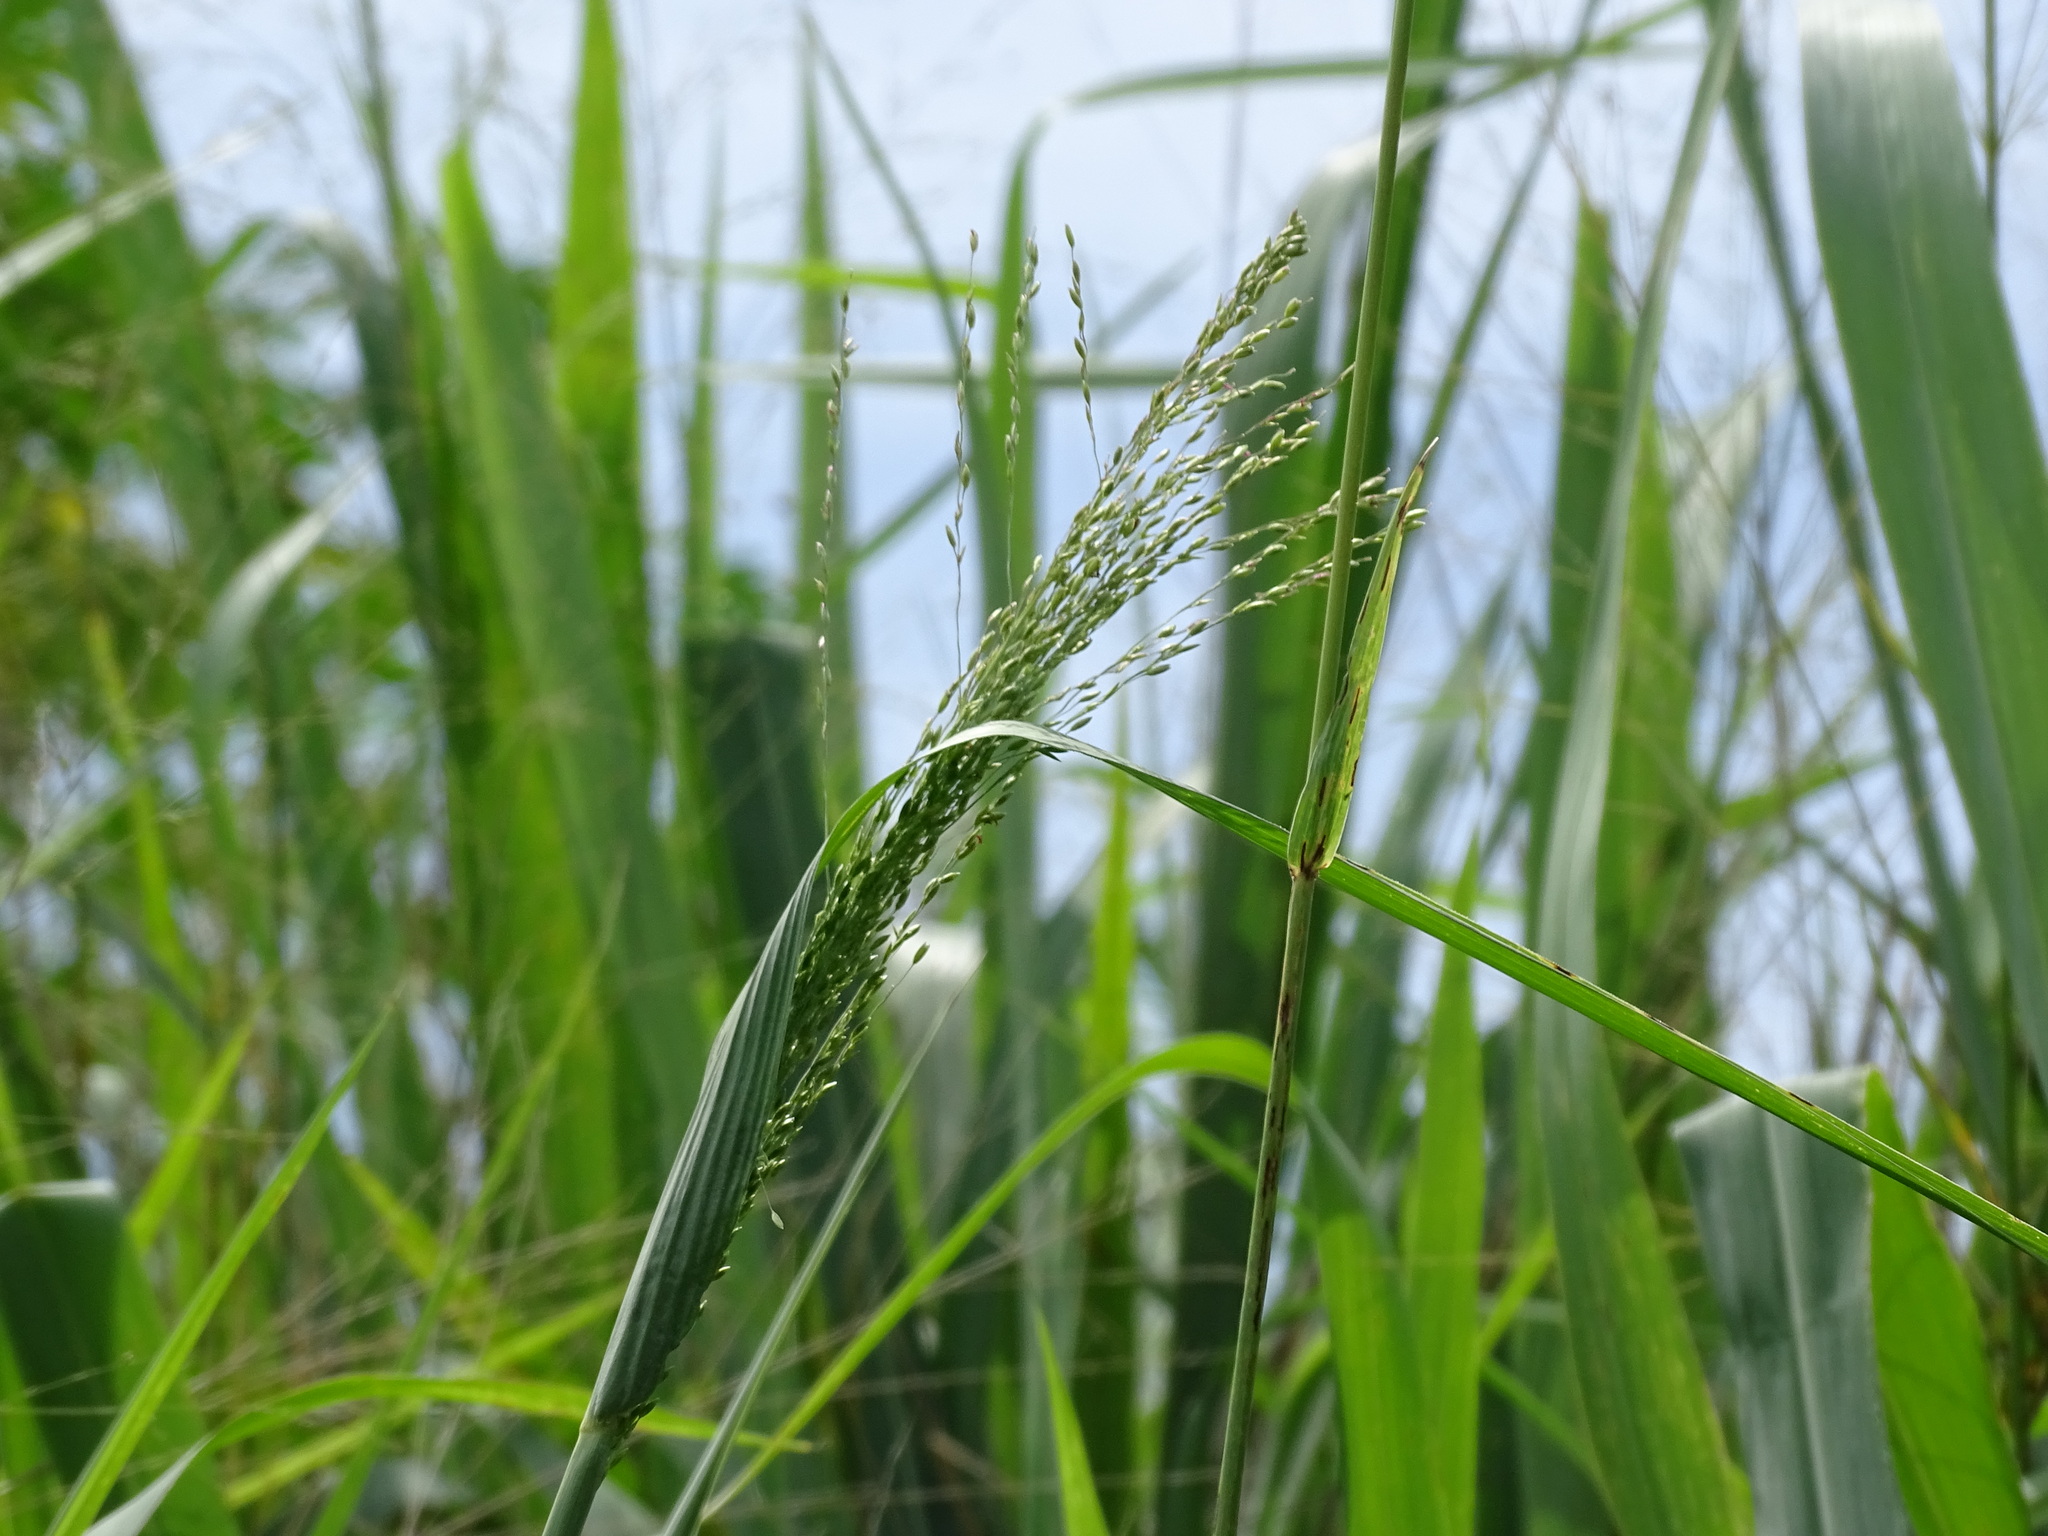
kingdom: Plantae
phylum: Tracheophyta
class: Liliopsida
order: Poales
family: Poaceae
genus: Megathyrsus
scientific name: Megathyrsus maximus
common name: Guineagrass
